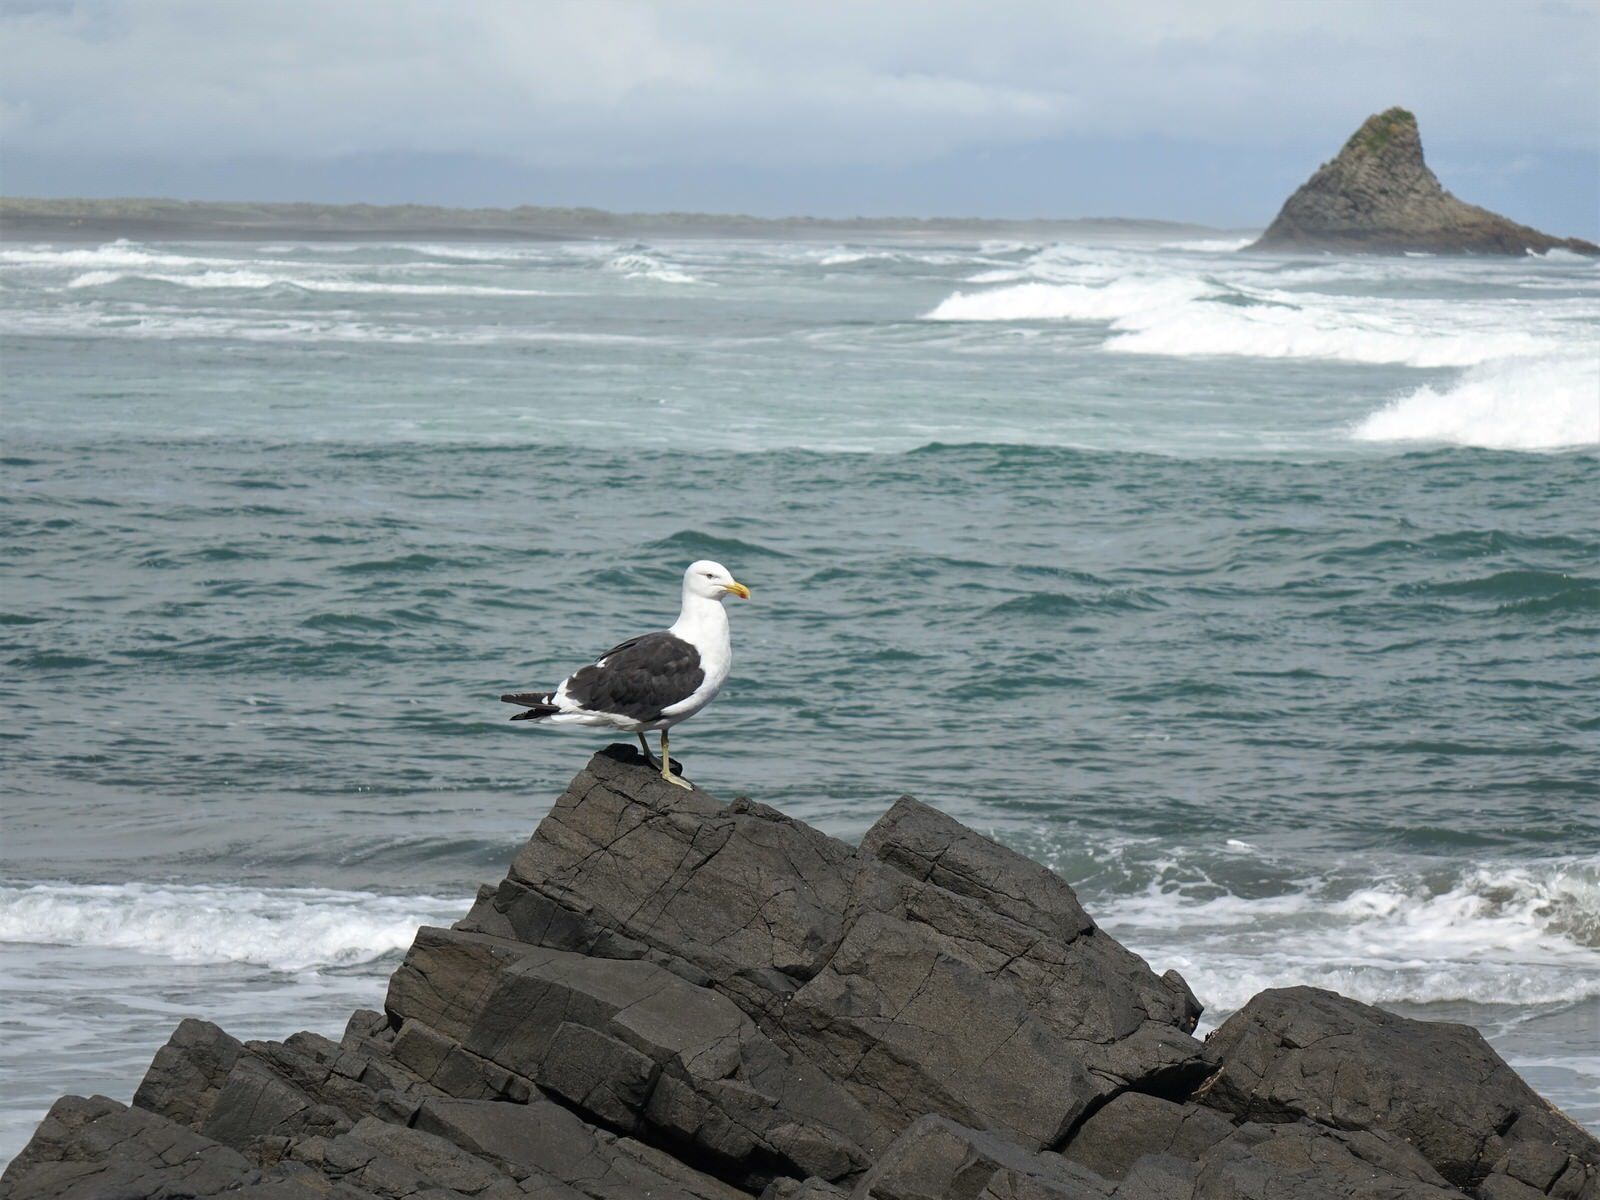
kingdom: Animalia
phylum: Chordata
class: Aves
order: Charadriiformes
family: Laridae
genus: Larus
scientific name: Larus dominicanus
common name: Kelp gull
